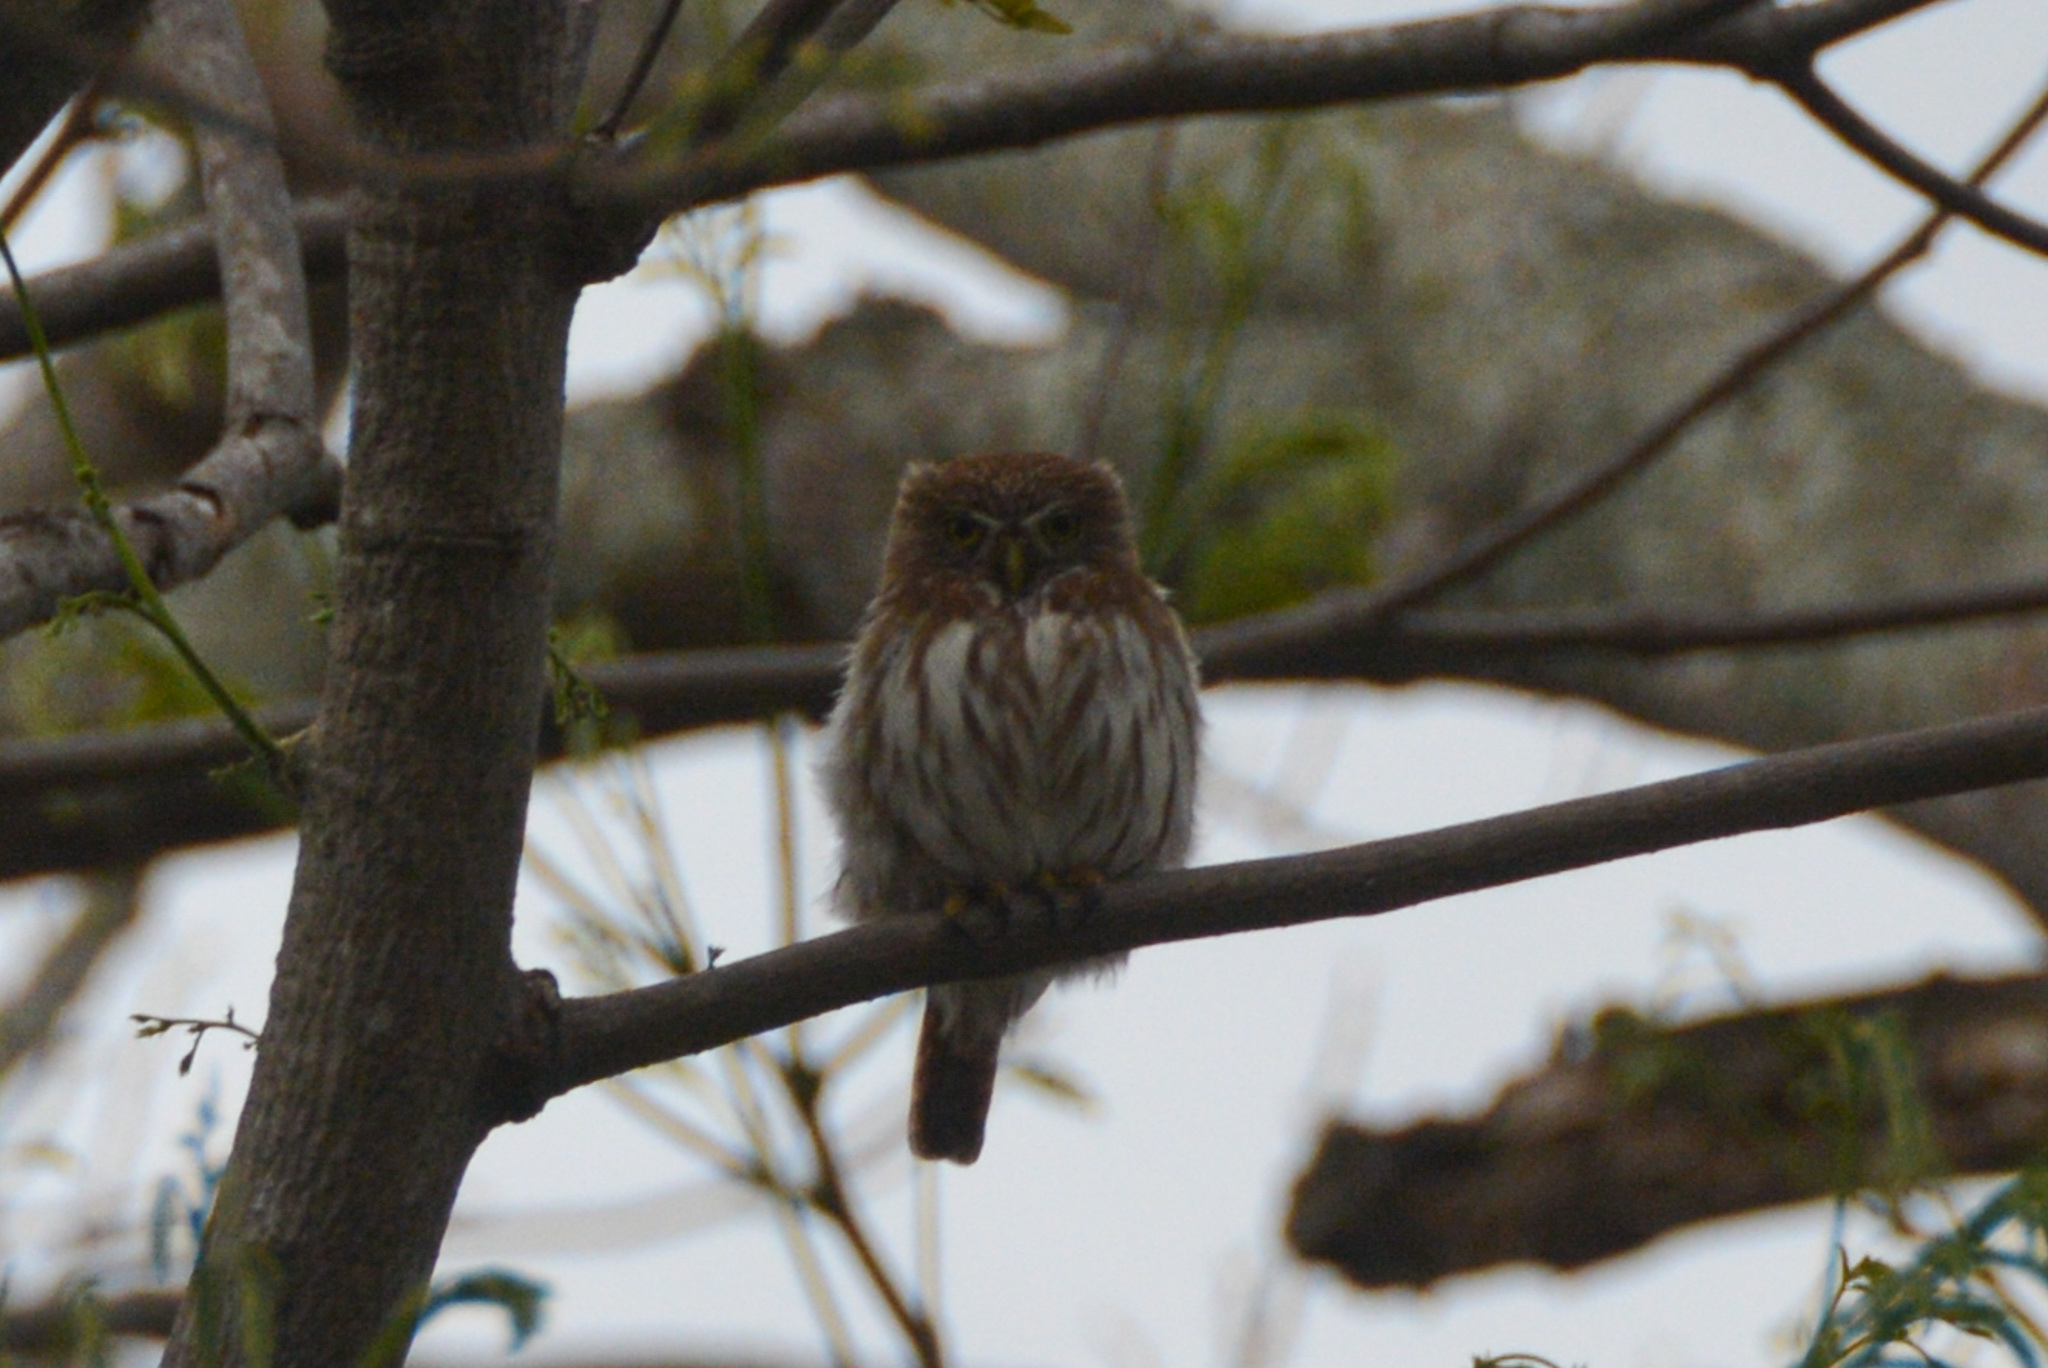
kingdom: Animalia
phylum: Chordata
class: Aves
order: Strigiformes
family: Strigidae
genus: Glaucidium
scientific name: Glaucidium brasilianum
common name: Ferruginous pygmy-owl
